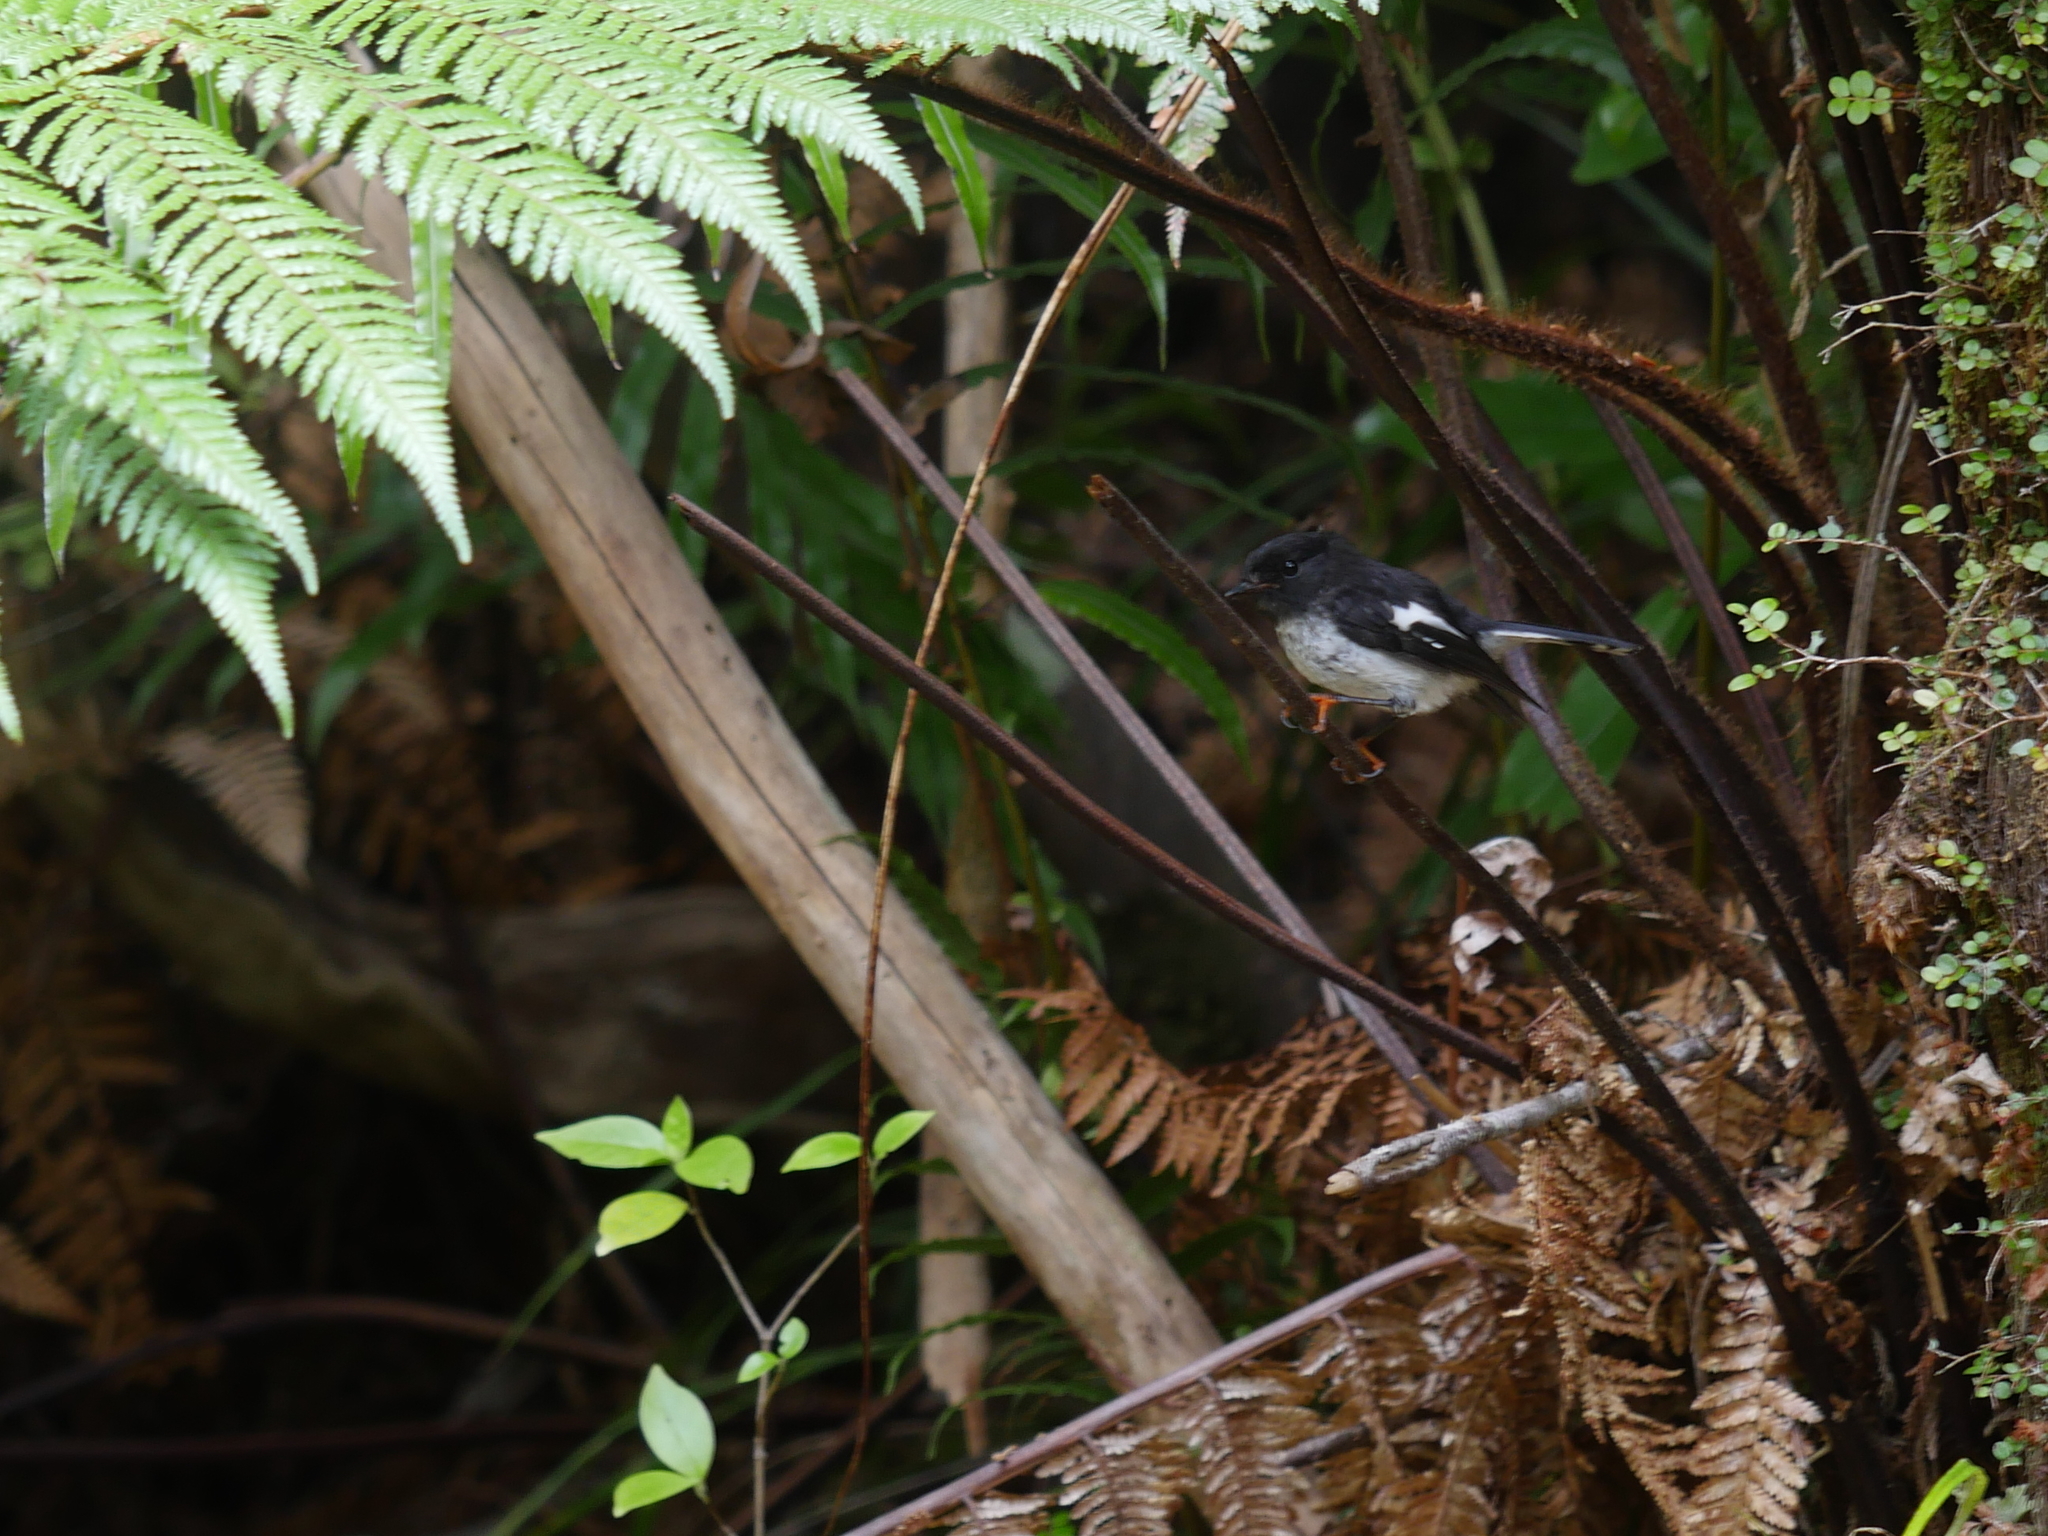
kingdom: Animalia
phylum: Chordata
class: Aves
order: Passeriformes
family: Petroicidae
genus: Petroica
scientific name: Petroica macrocephala
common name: Tomtit
